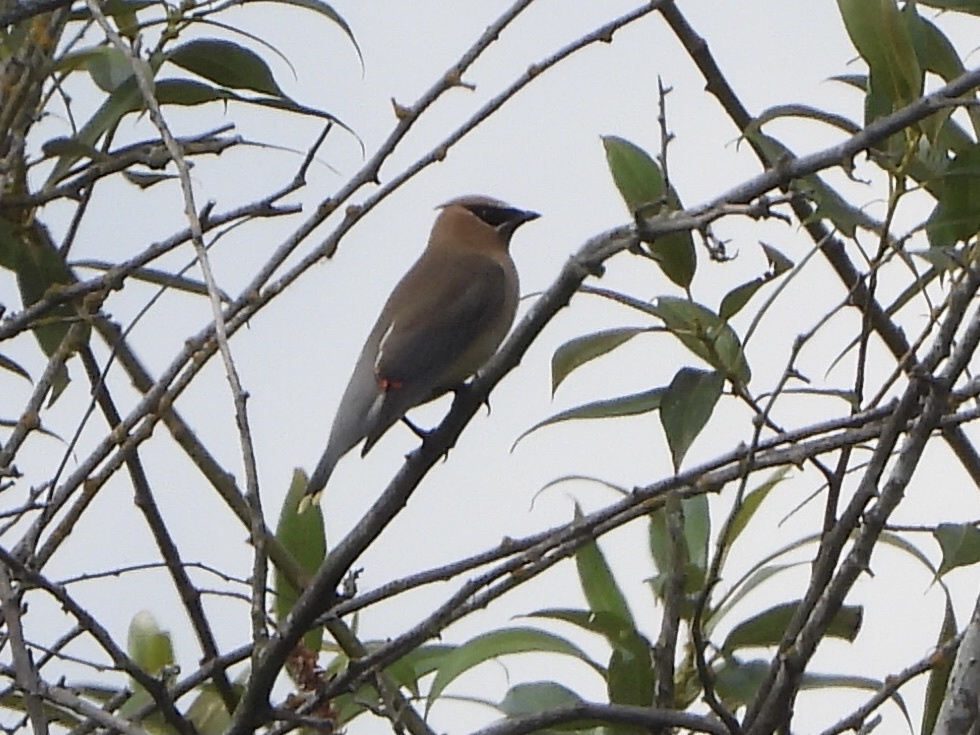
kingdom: Animalia
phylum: Chordata
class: Aves
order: Passeriformes
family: Bombycillidae
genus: Bombycilla
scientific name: Bombycilla cedrorum
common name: Cedar waxwing
